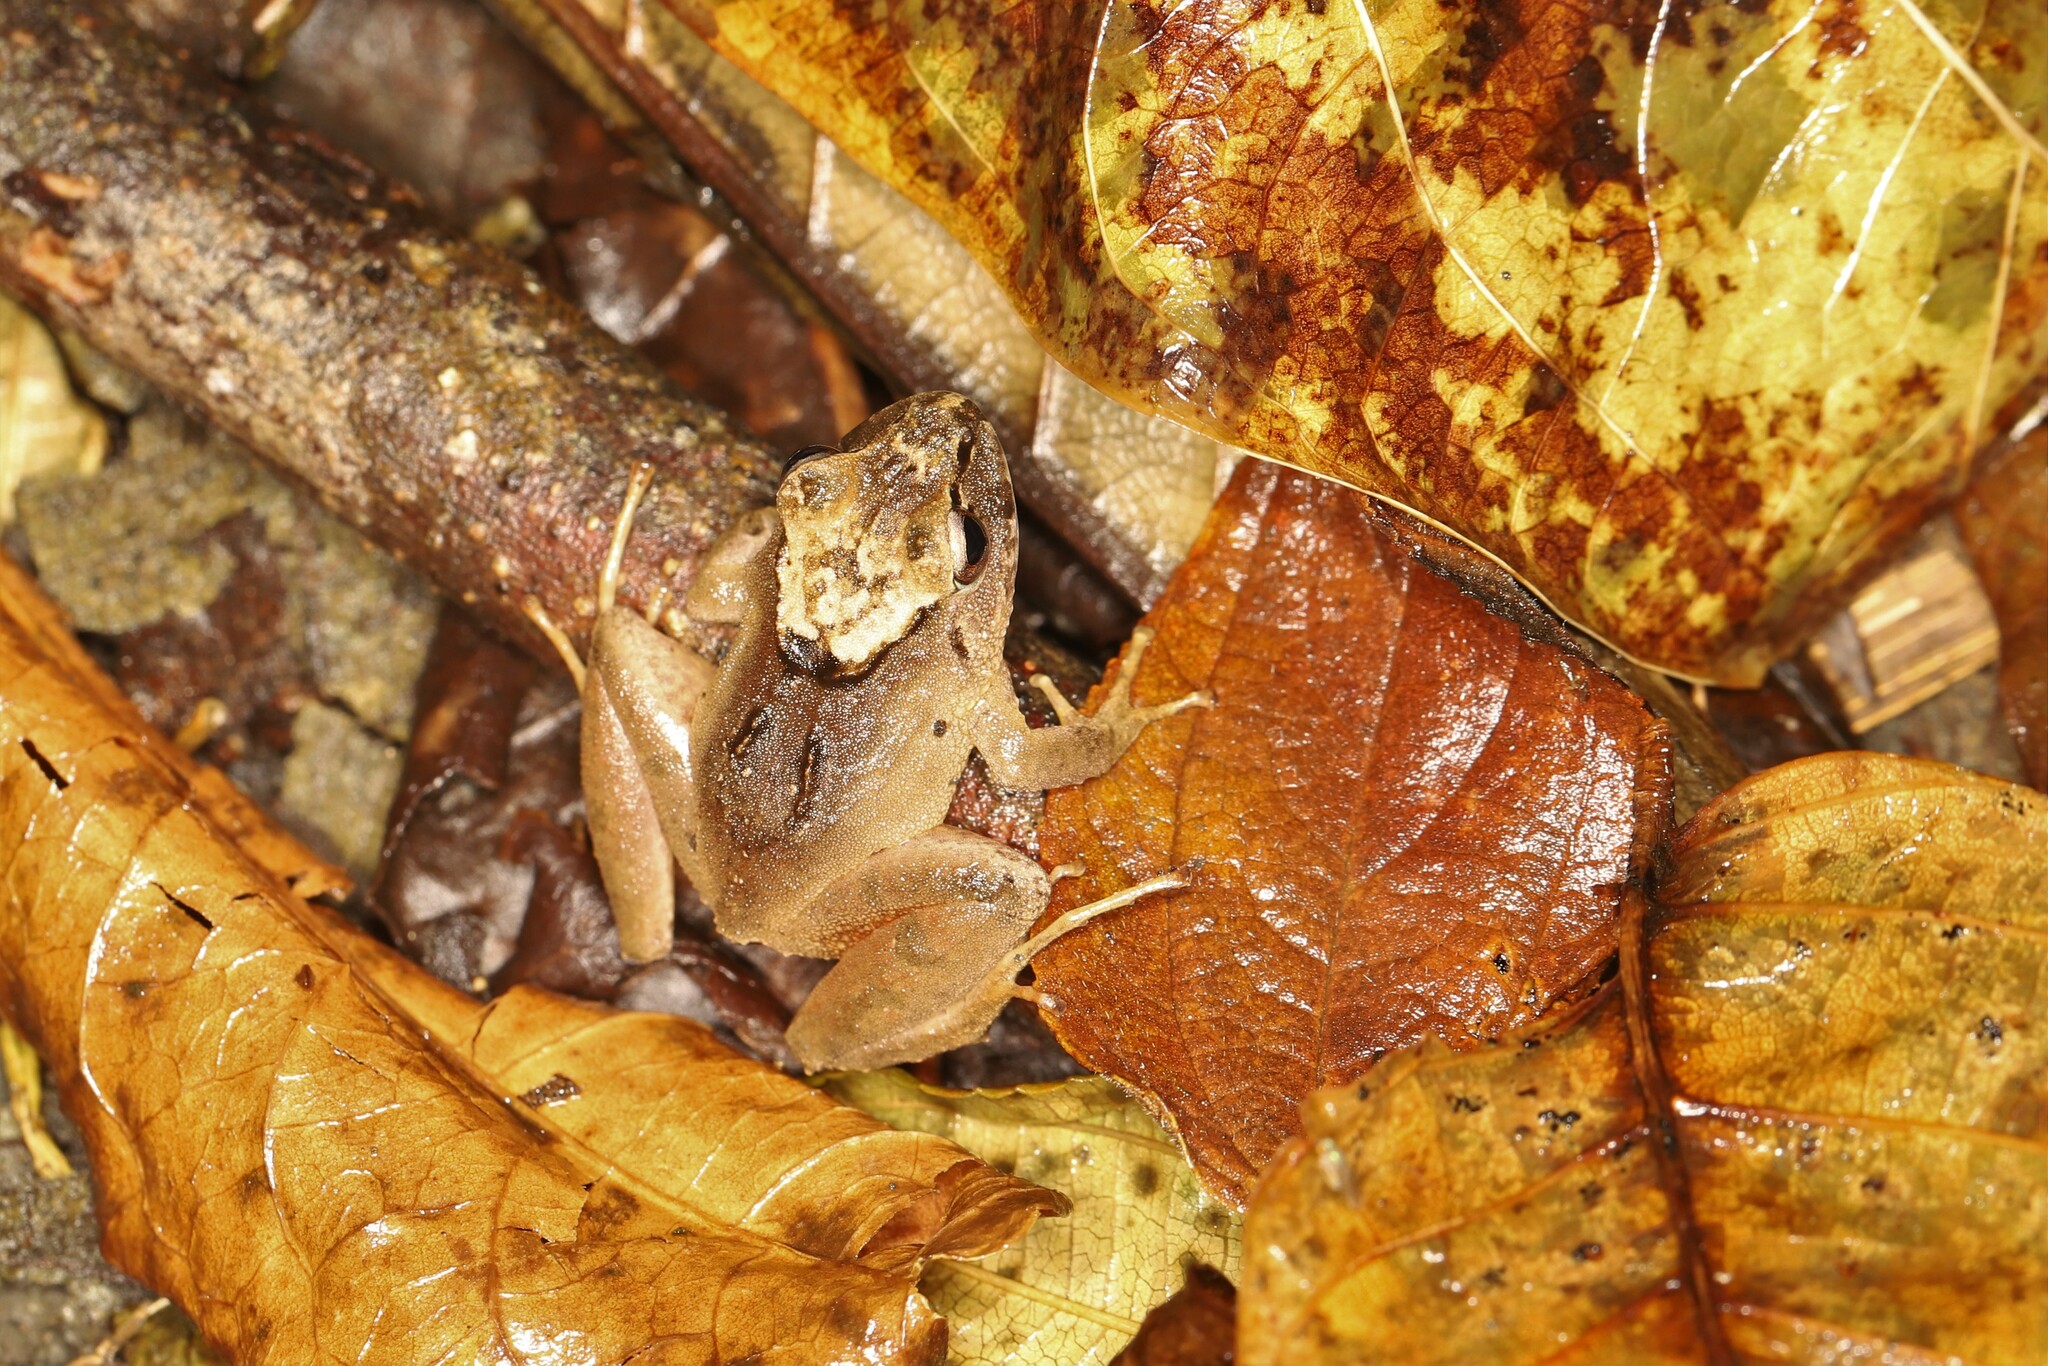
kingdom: Animalia
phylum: Chordata
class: Amphibia
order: Anura
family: Craugastoridae
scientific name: Craugastoridae
